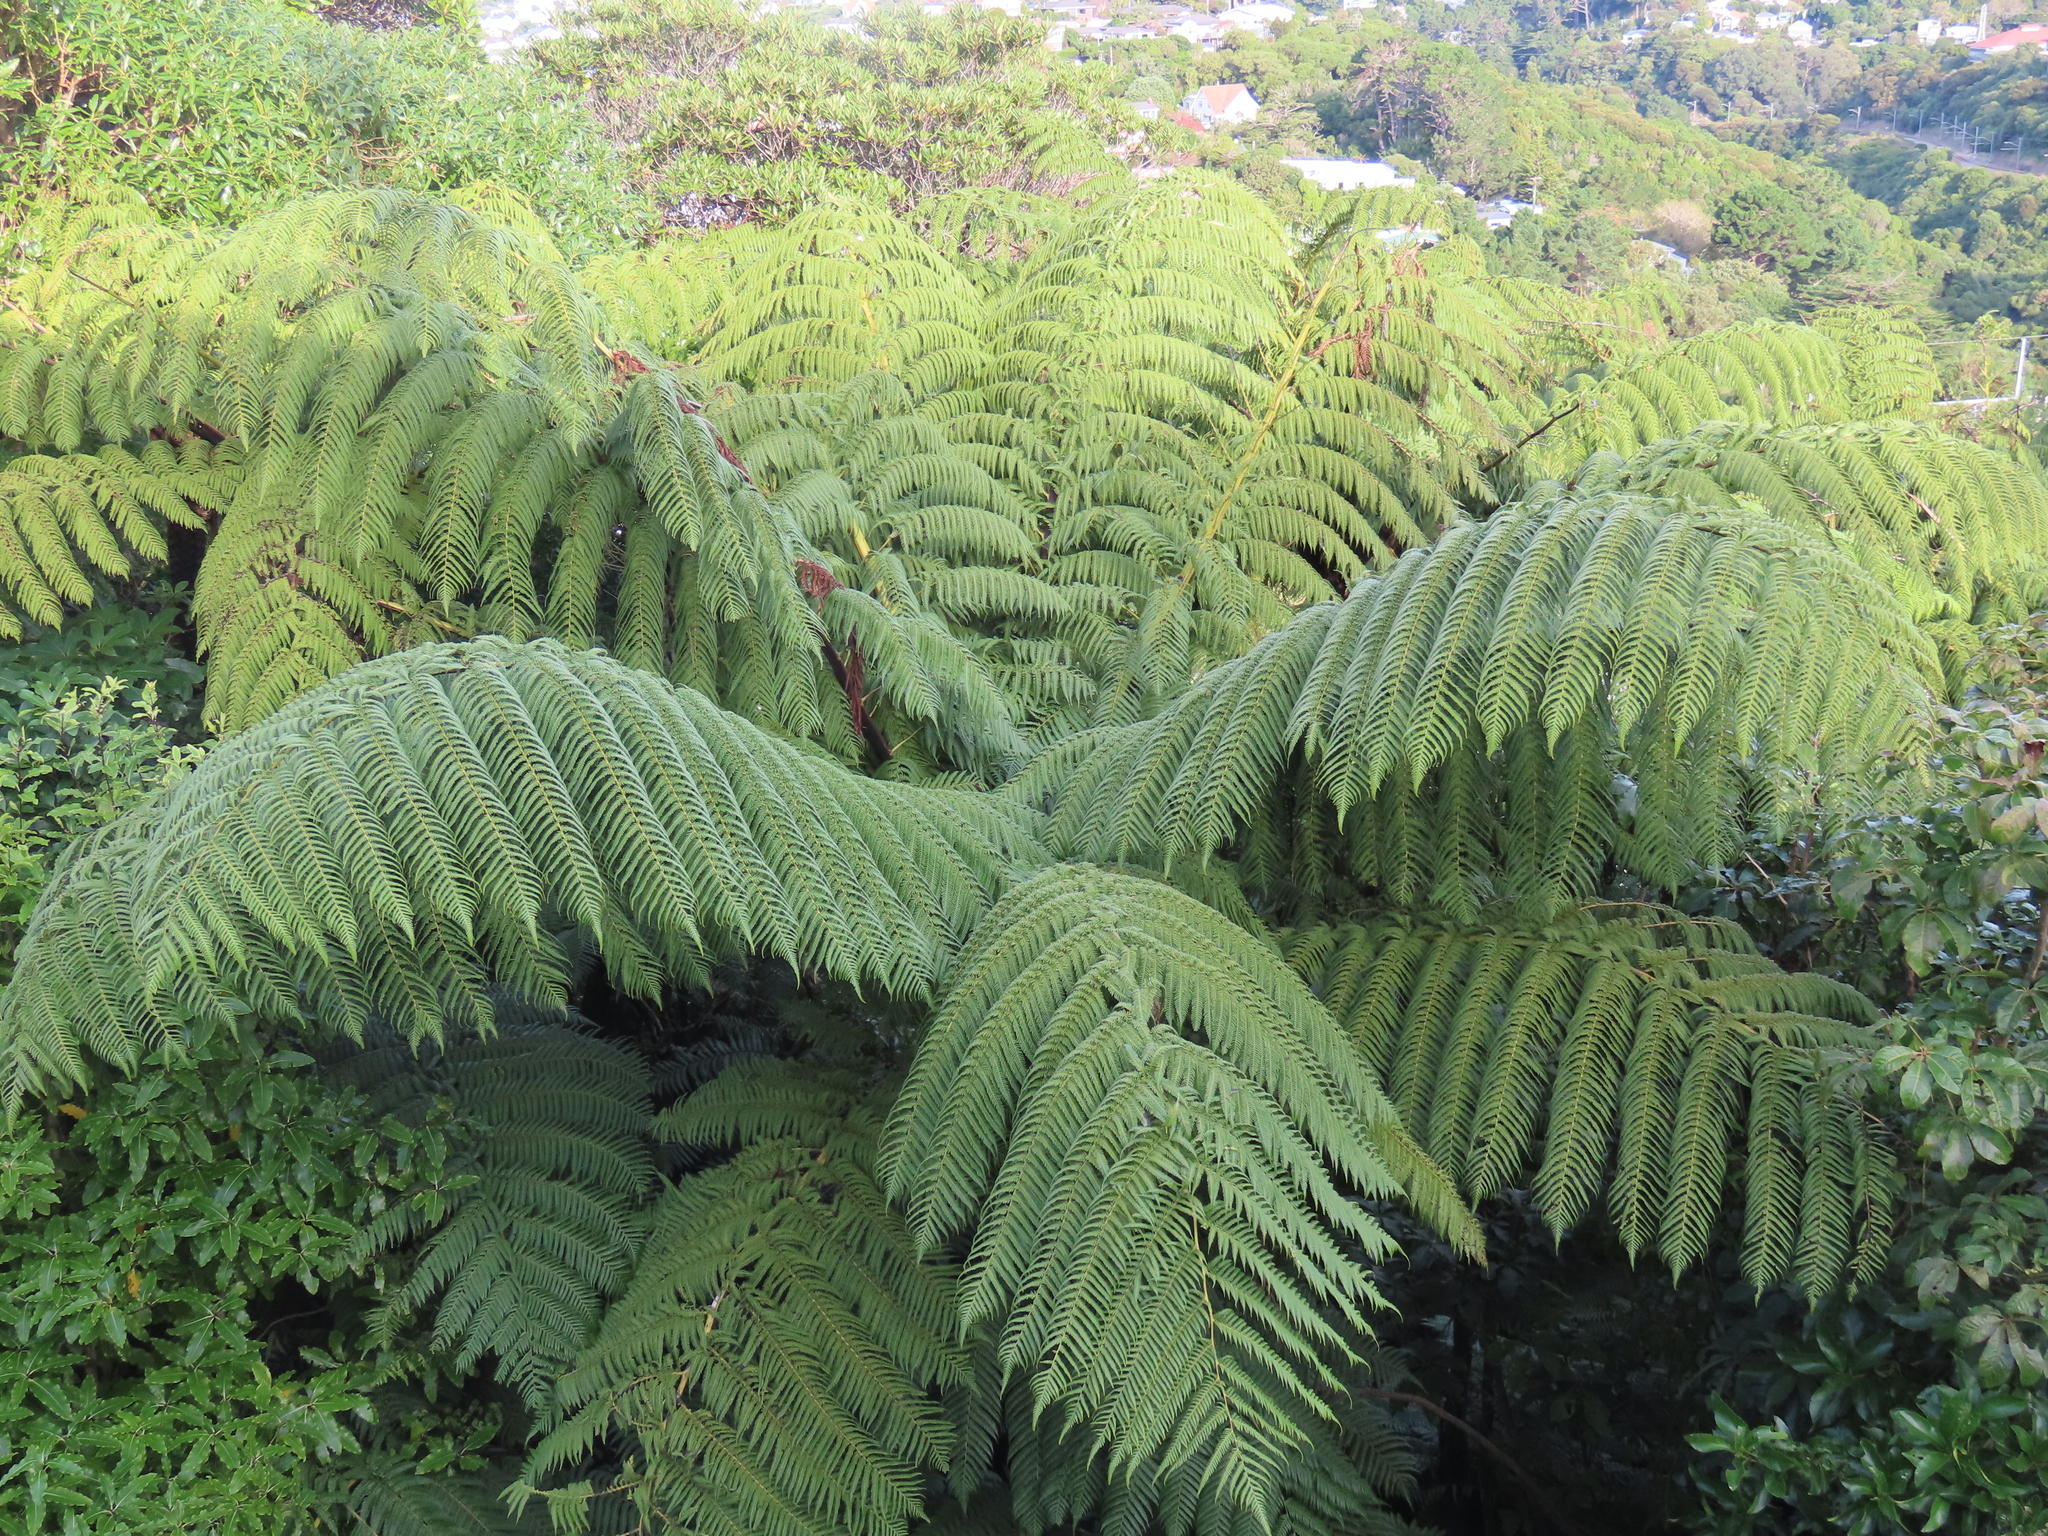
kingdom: Plantae
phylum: Tracheophyta
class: Polypodiopsida
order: Cyatheales
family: Cyatheaceae
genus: Sphaeropteris
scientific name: Sphaeropteris medullaris
